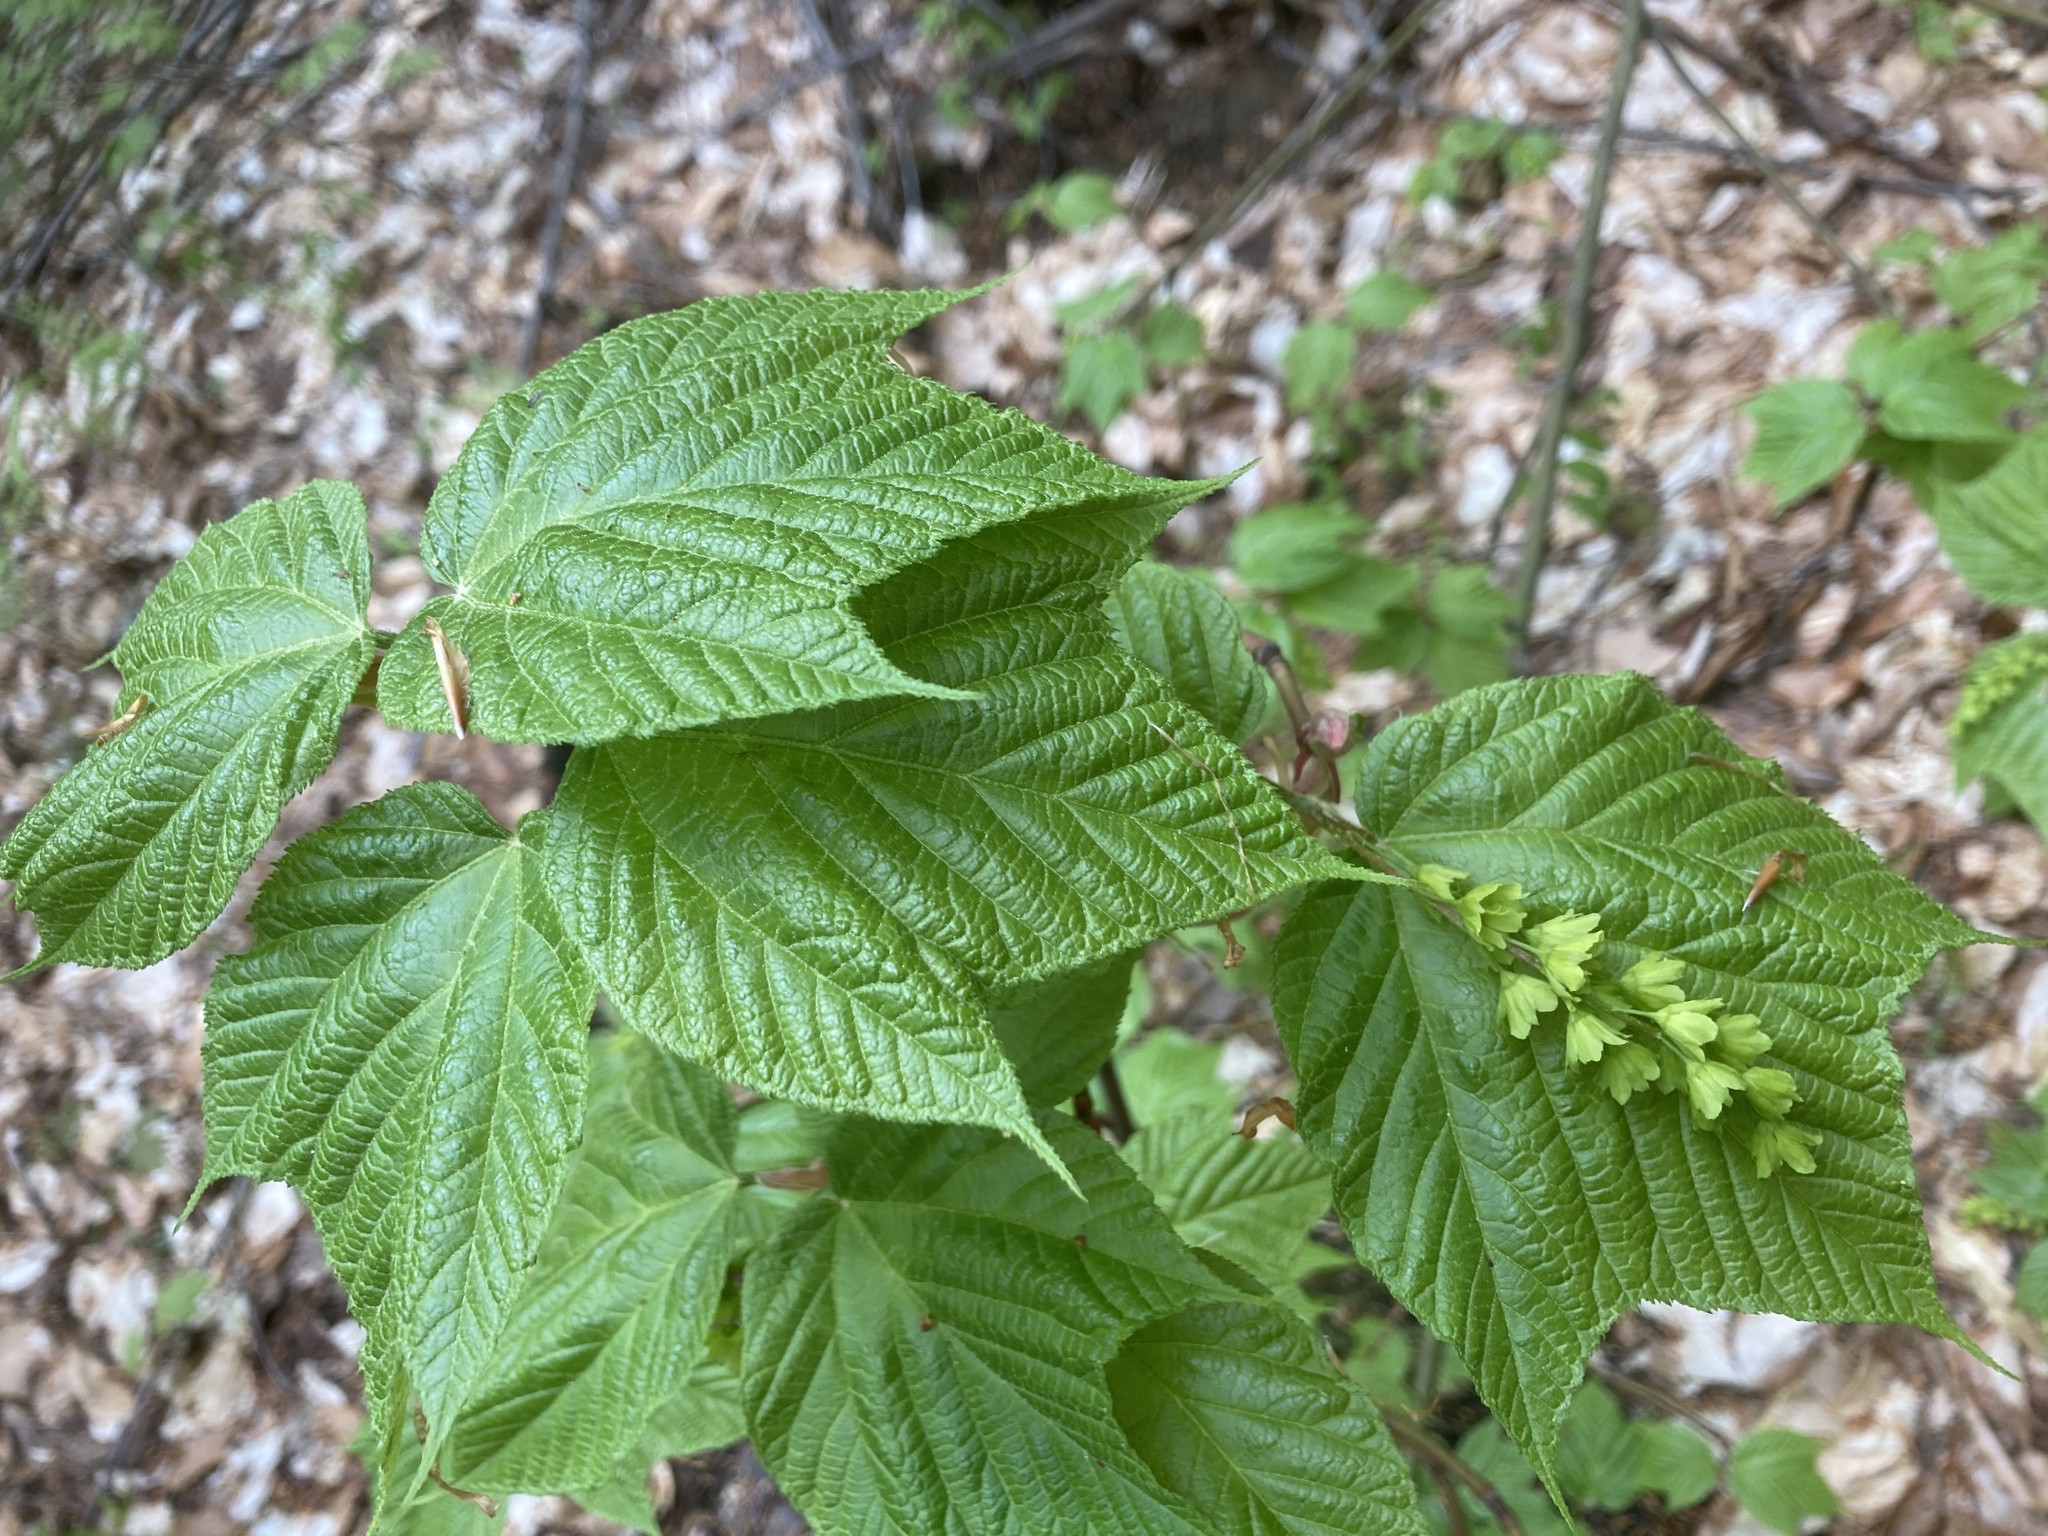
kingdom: Plantae
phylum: Tracheophyta
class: Magnoliopsida
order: Sapindales
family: Sapindaceae
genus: Acer
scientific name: Acer pensylvanicum
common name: Moosewood
